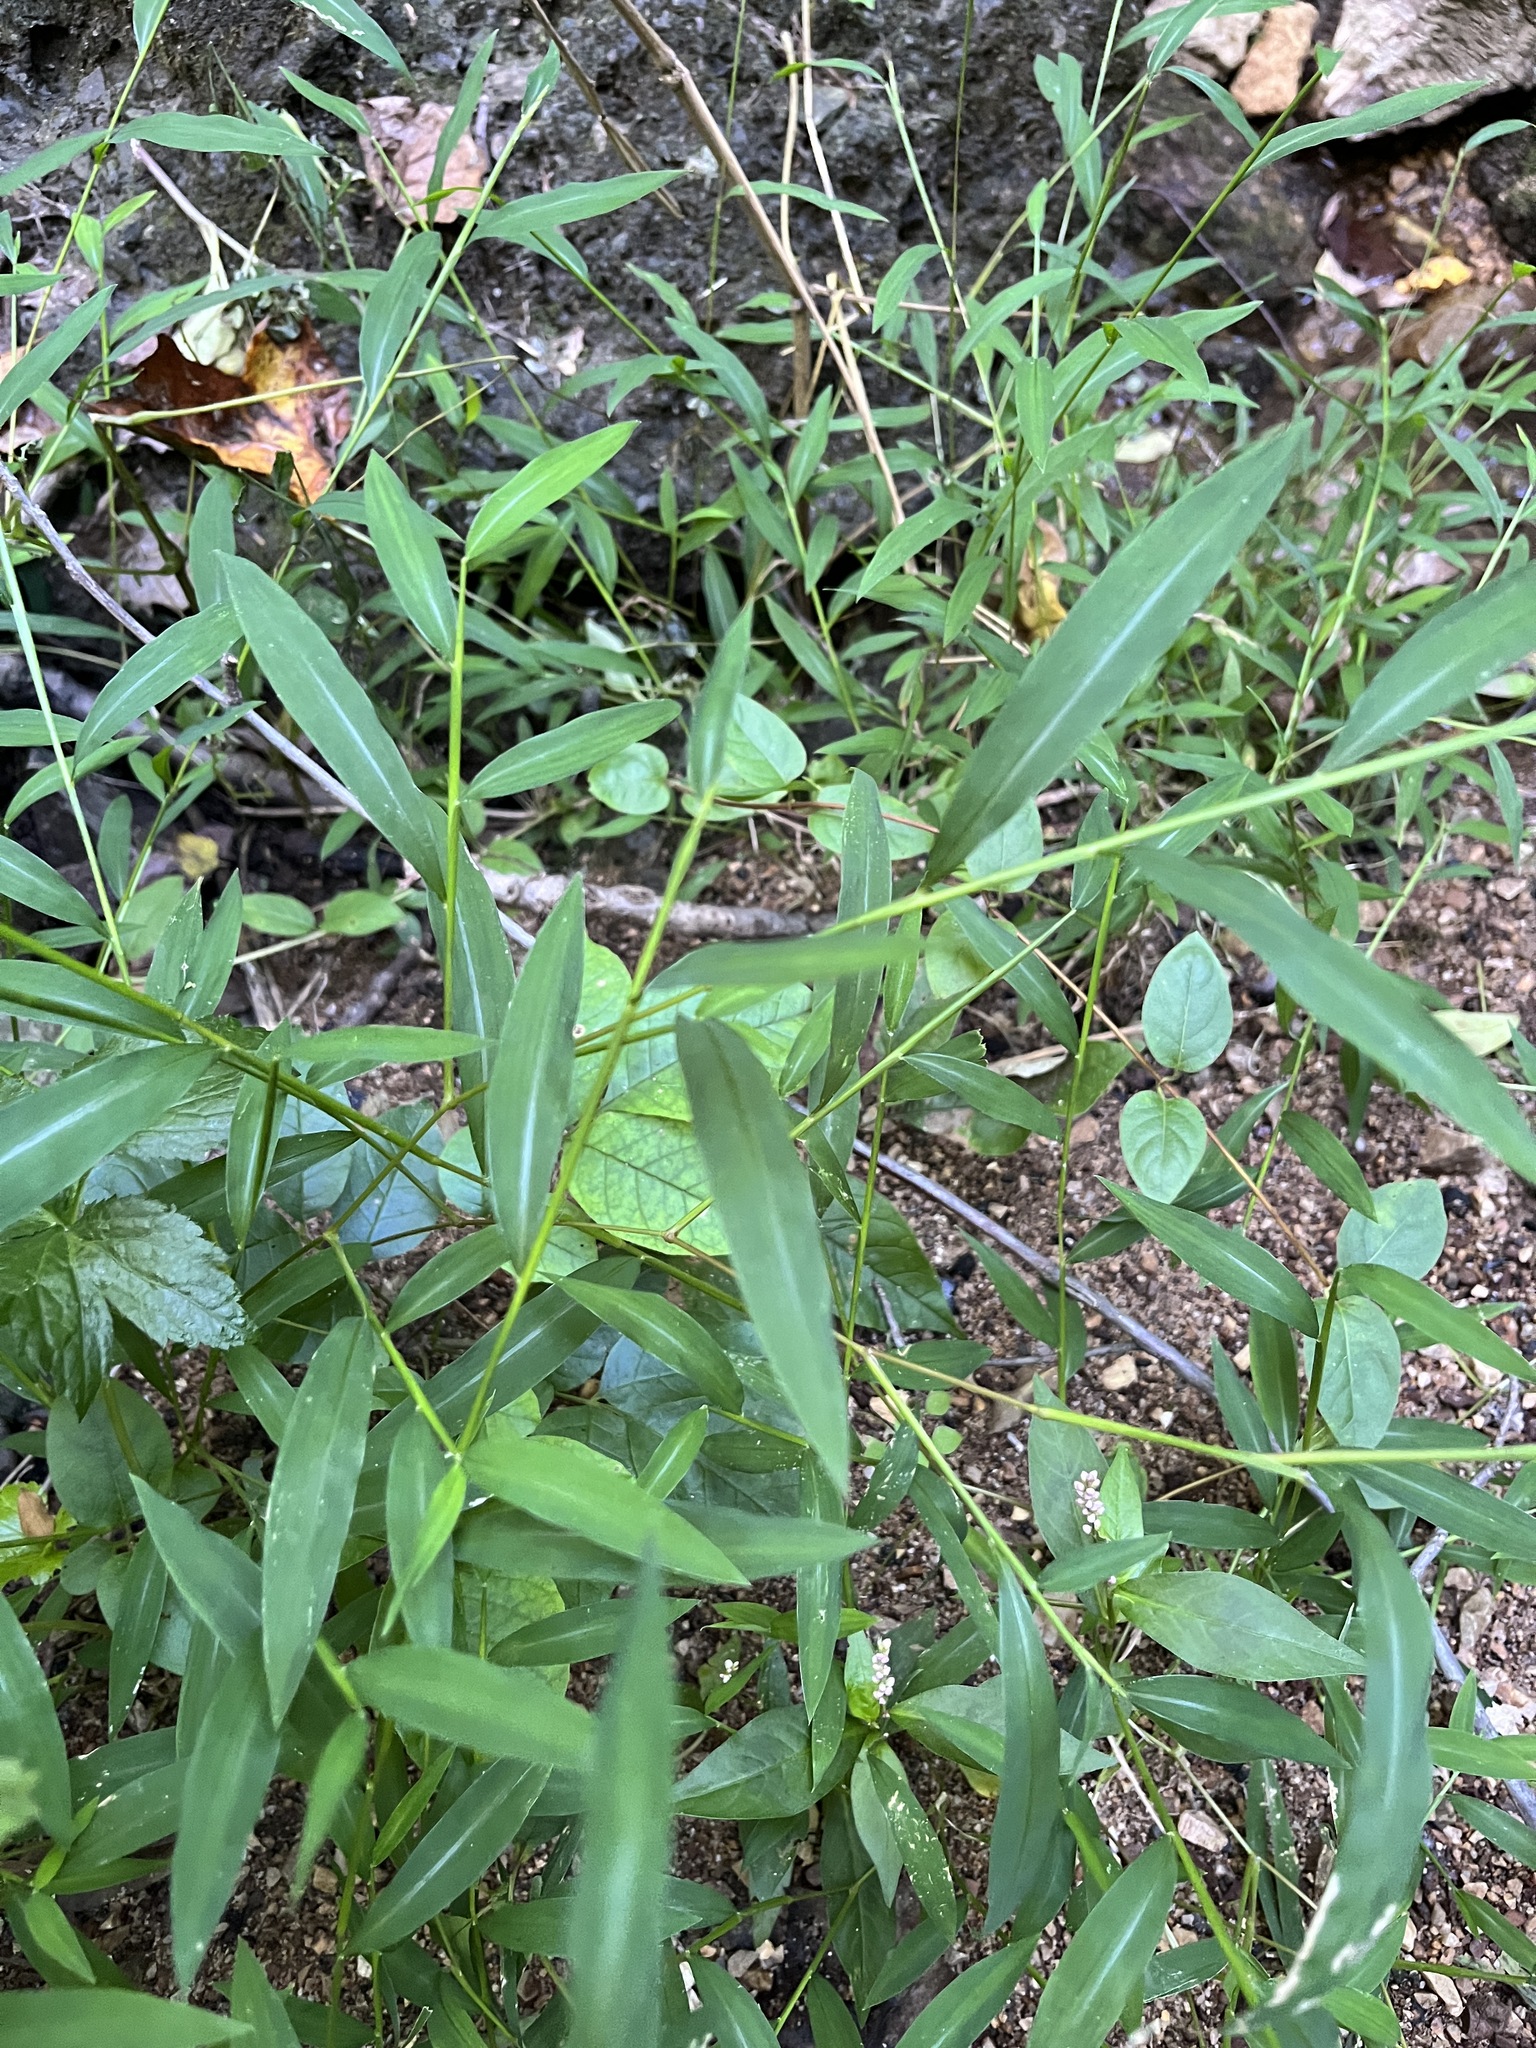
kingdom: Plantae
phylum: Tracheophyta
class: Liliopsida
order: Poales
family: Poaceae
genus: Microstegium
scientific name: Microstegium vimineum
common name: Japanese stiltgrass
